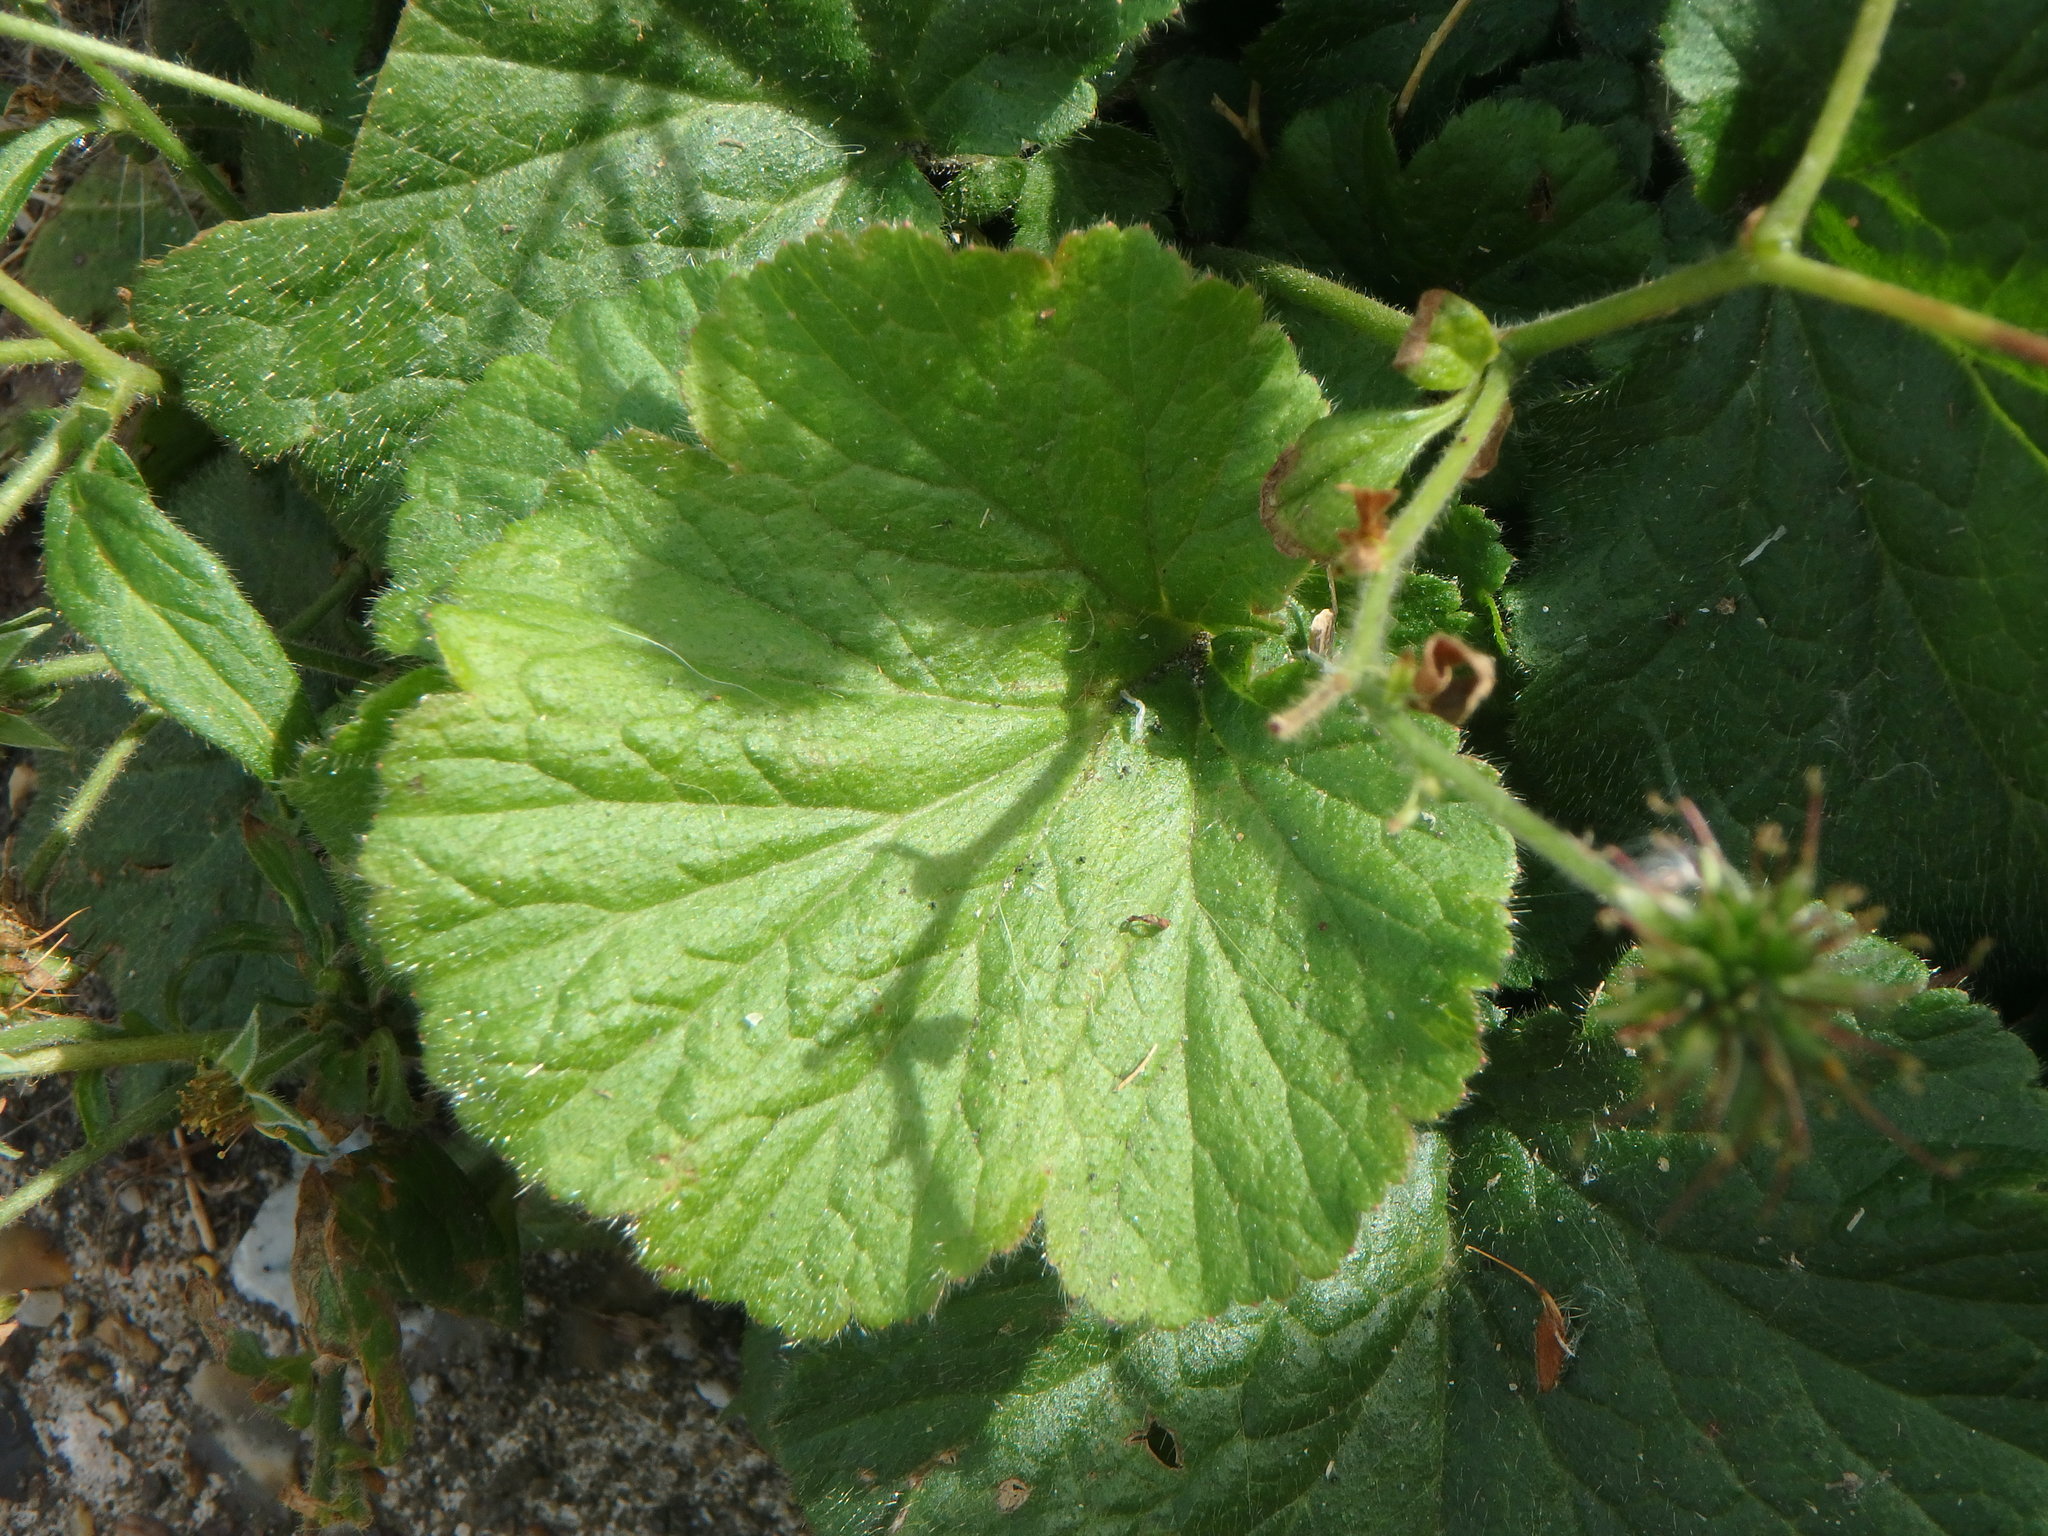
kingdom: Plantae
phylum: Tracheophyta
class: Magnoliopsida
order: Rosales
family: Rosaceae
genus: Geum
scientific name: Geum urbanum
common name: Wood avens
